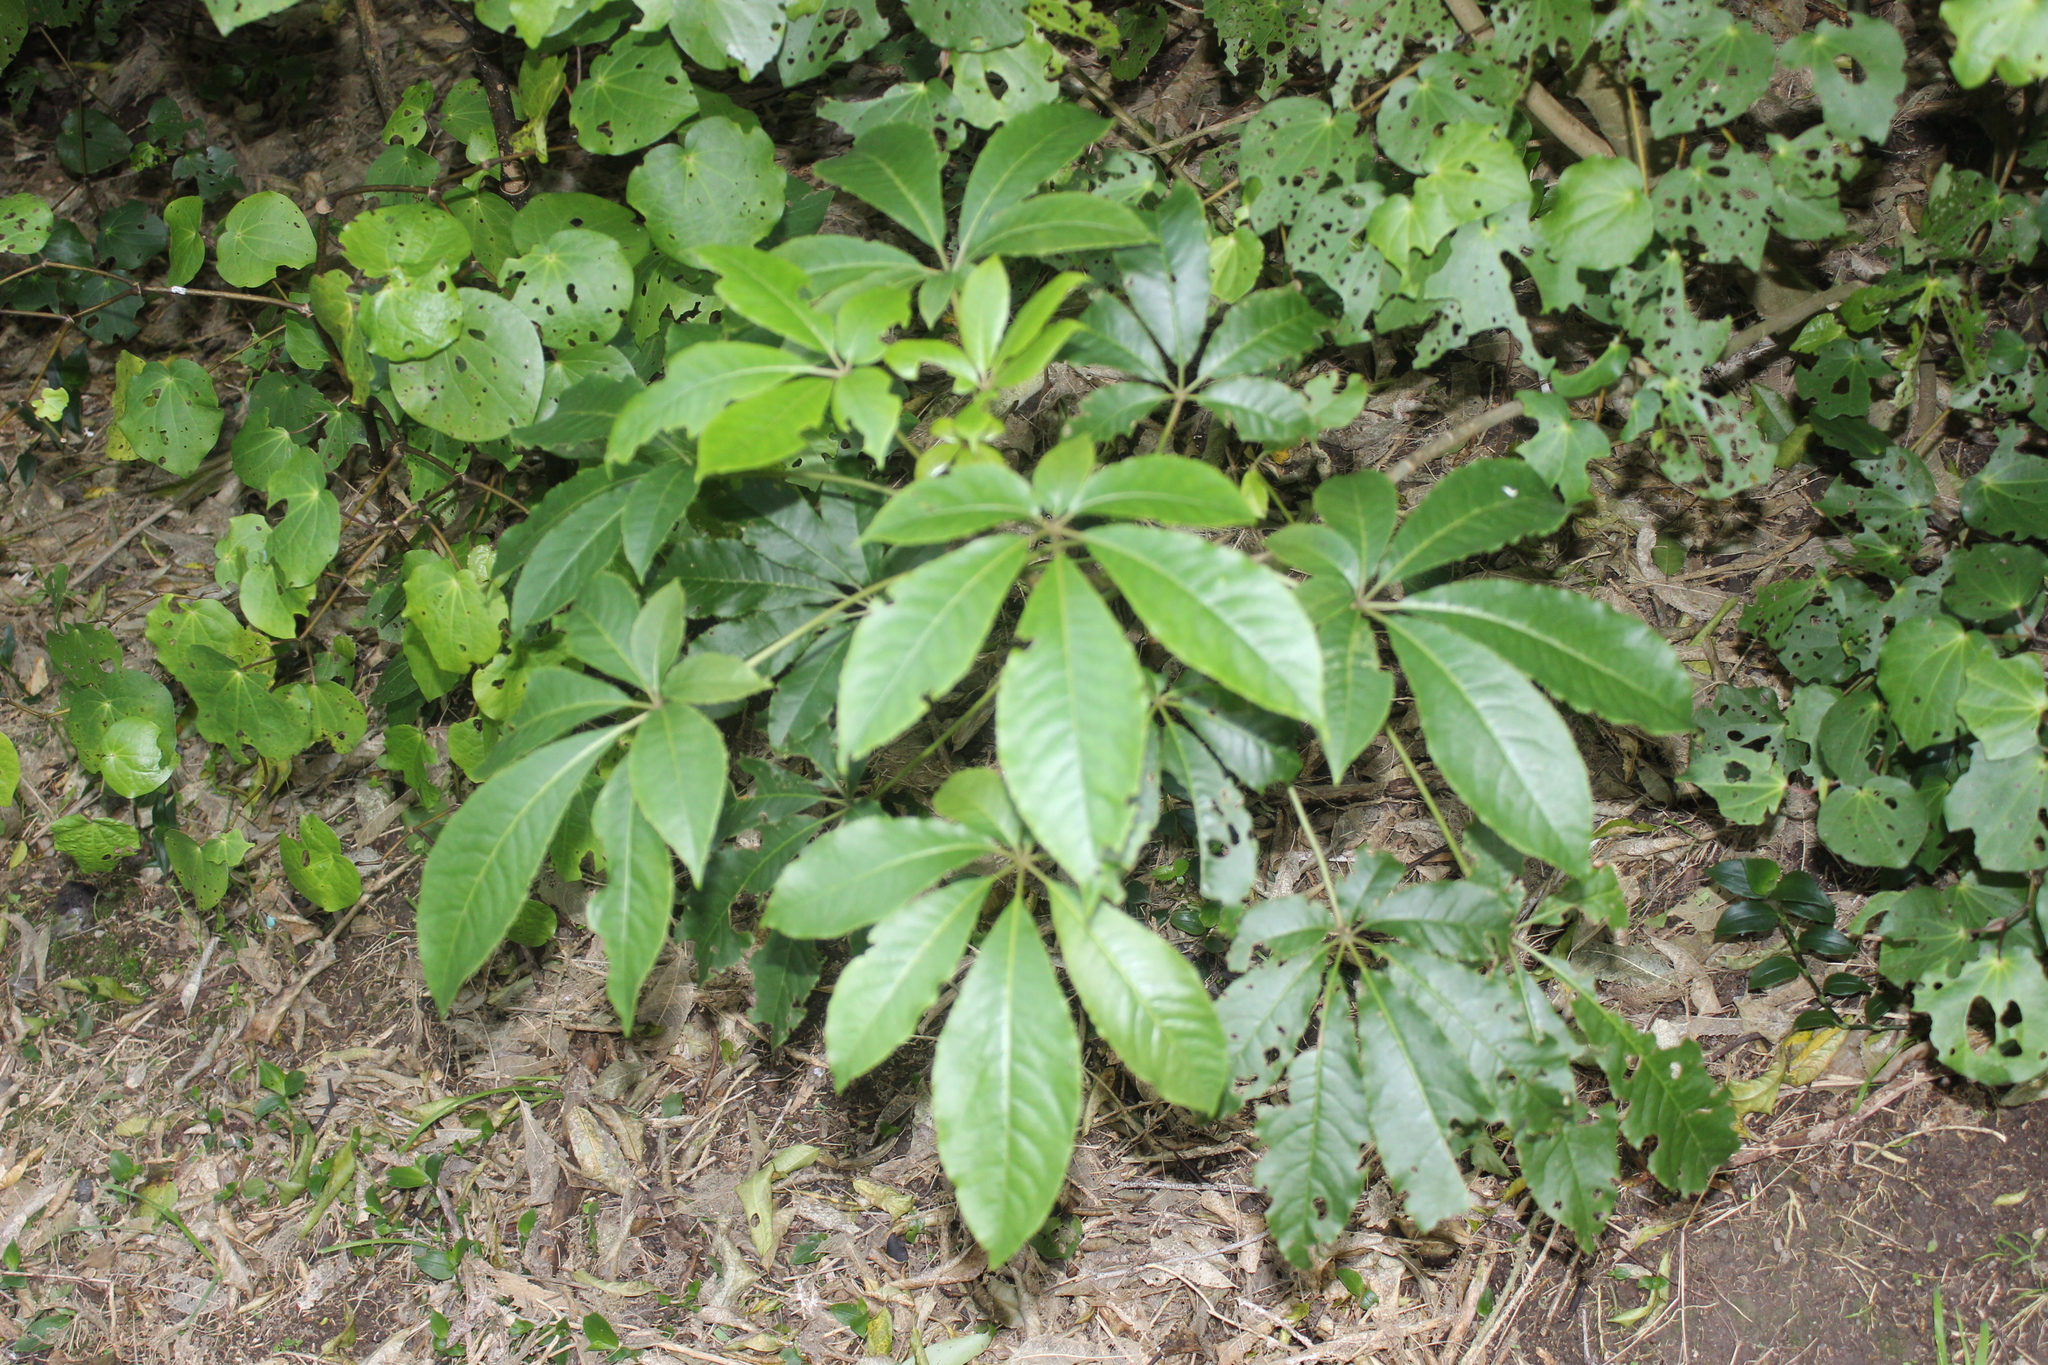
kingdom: Plantae
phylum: Tracheophyta
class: Magnoliopsida
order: Apiales
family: Araliaceae
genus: Schefflera
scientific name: Schefflera digitata
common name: Pate
